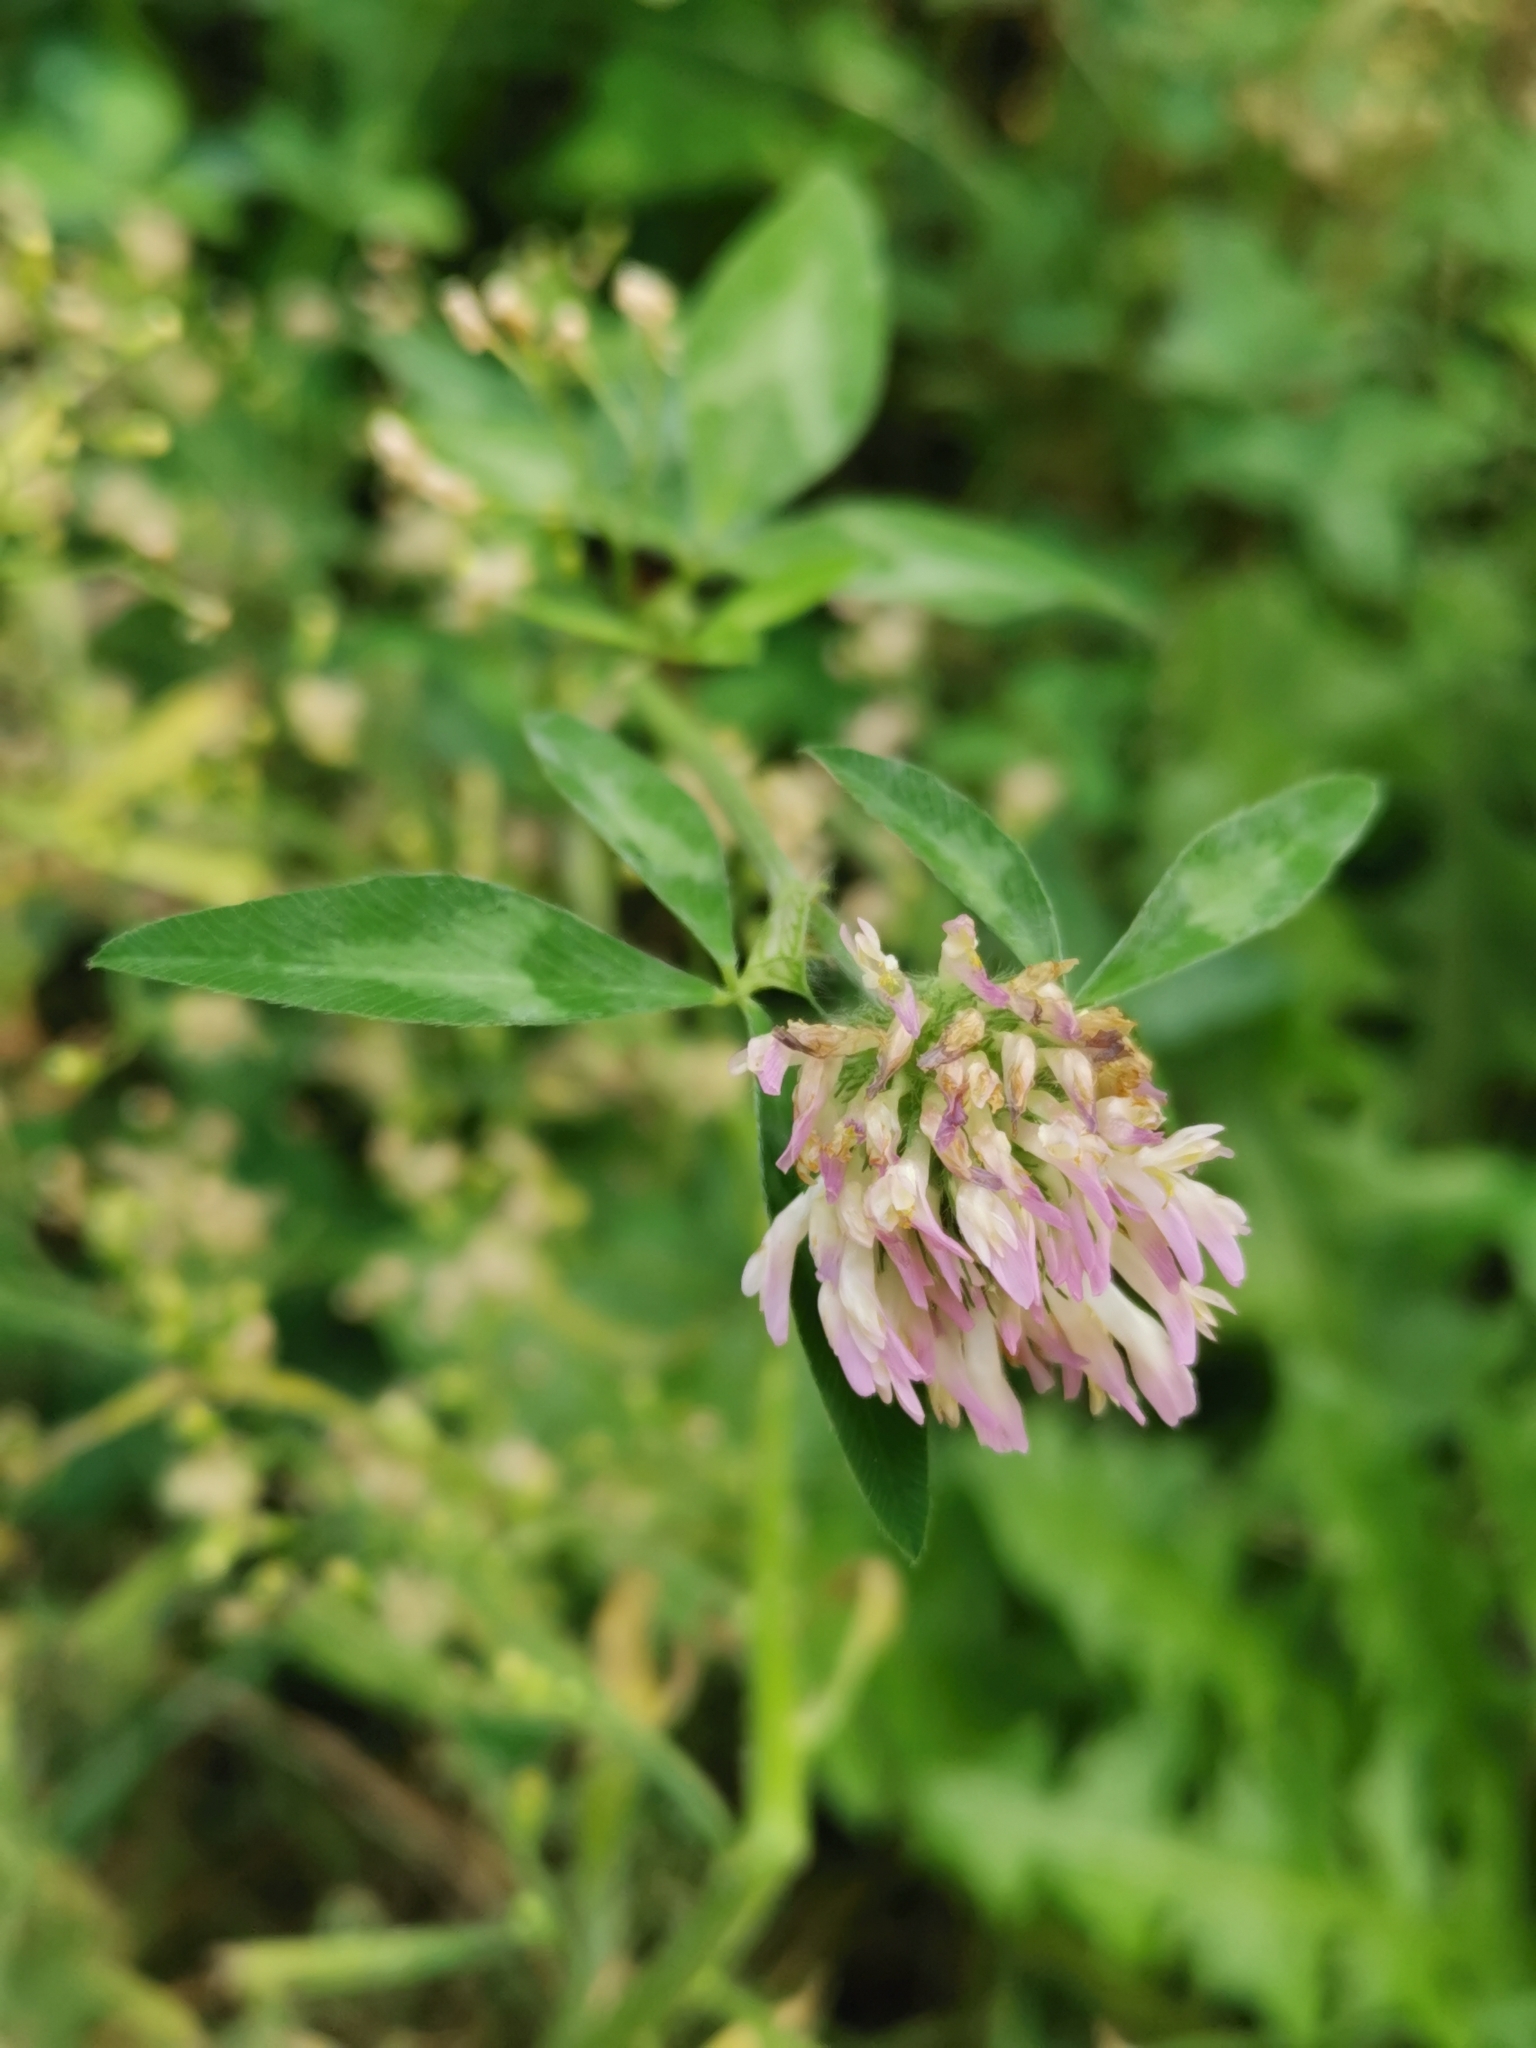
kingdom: Plantae
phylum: Tracheophyta
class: Magnoliopsida
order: Fabales
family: Fabaceae
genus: Trifolium
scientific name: Trifolium pratense
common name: Red clover
